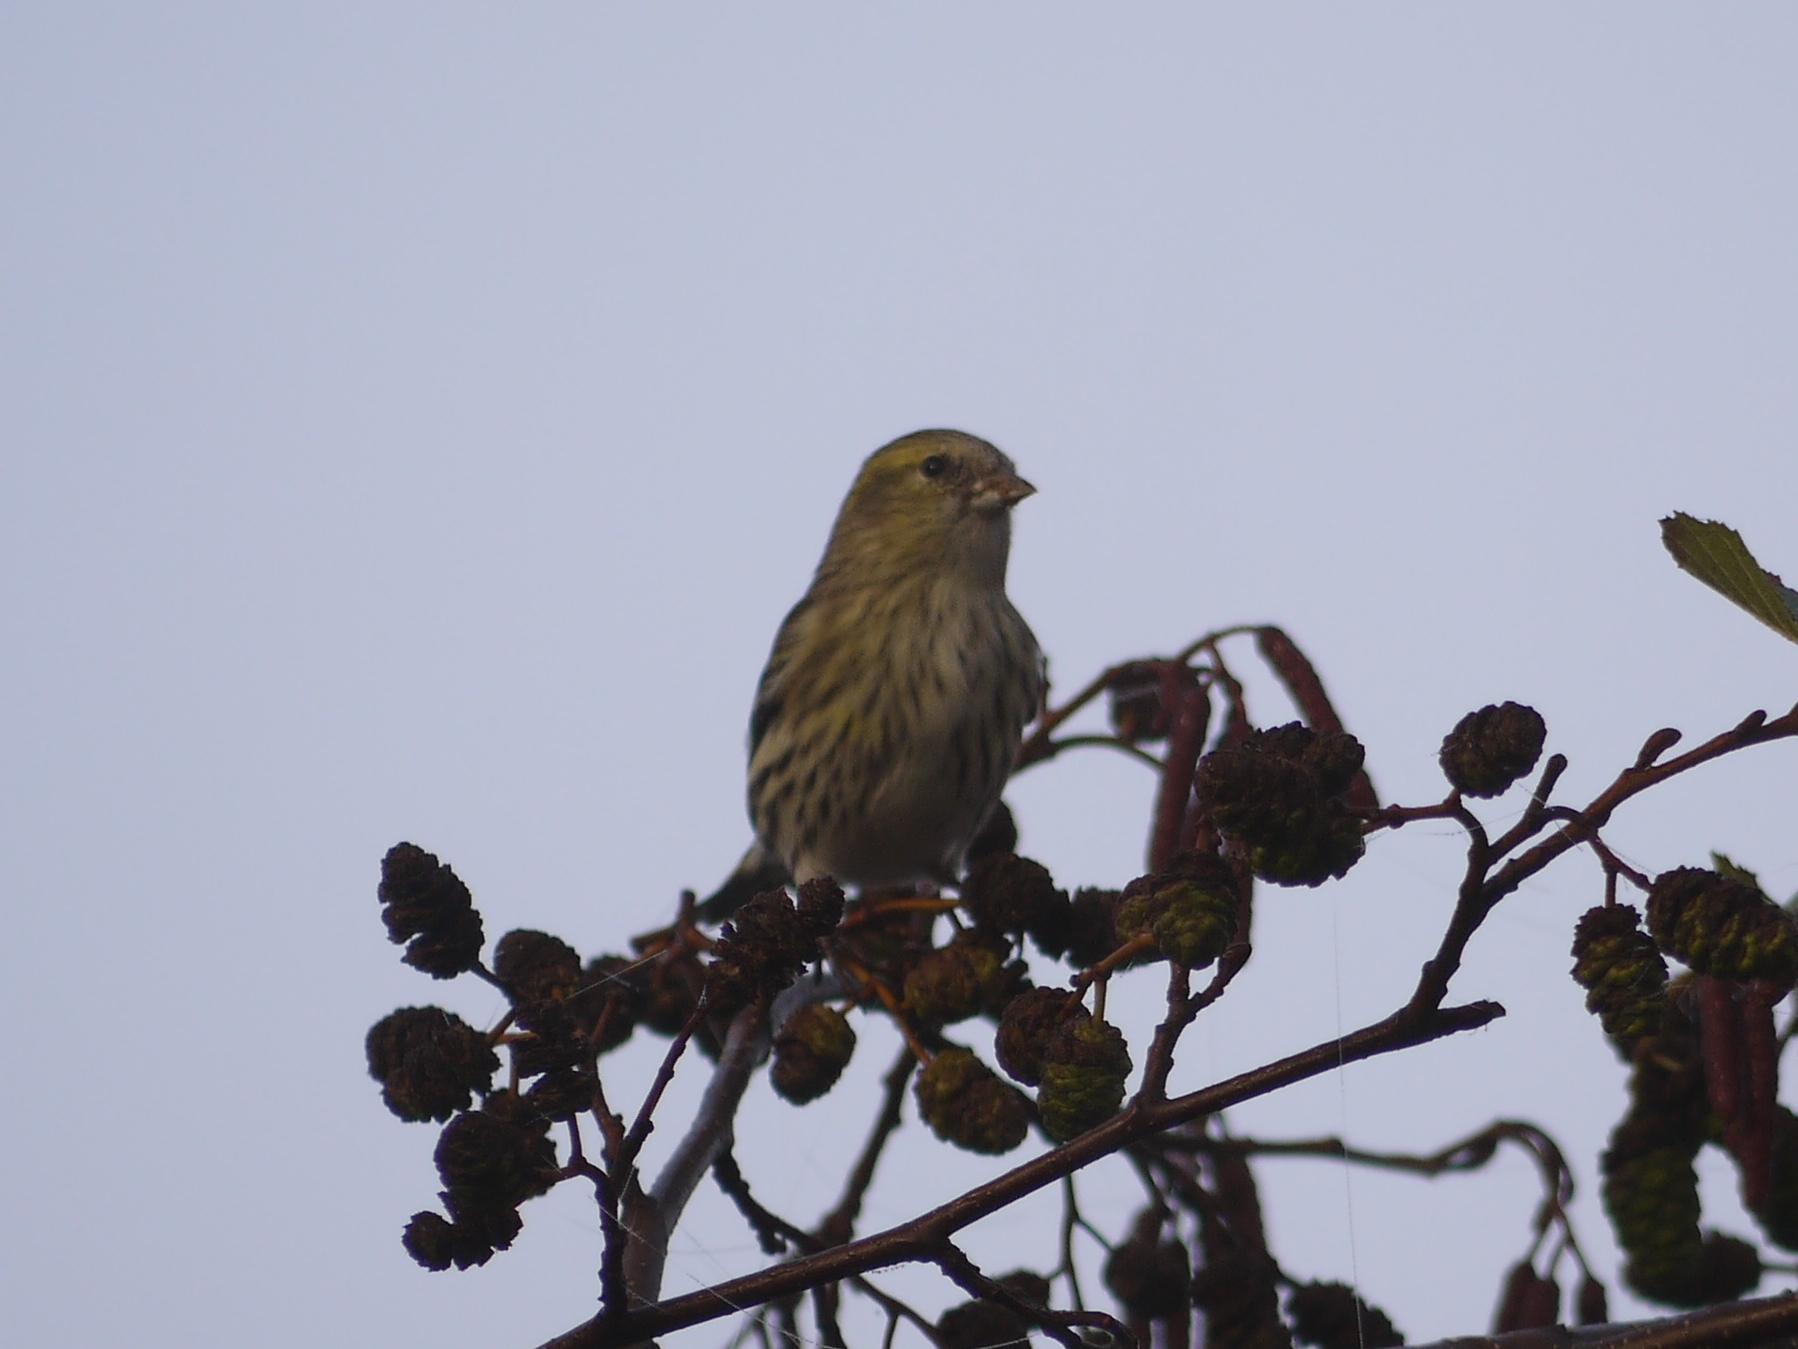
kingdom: Animalia
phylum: Chordata
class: Aves
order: Passeriformes
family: Fringillidae
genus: Spinus
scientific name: Spinus spinus
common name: Eurasian siskin
